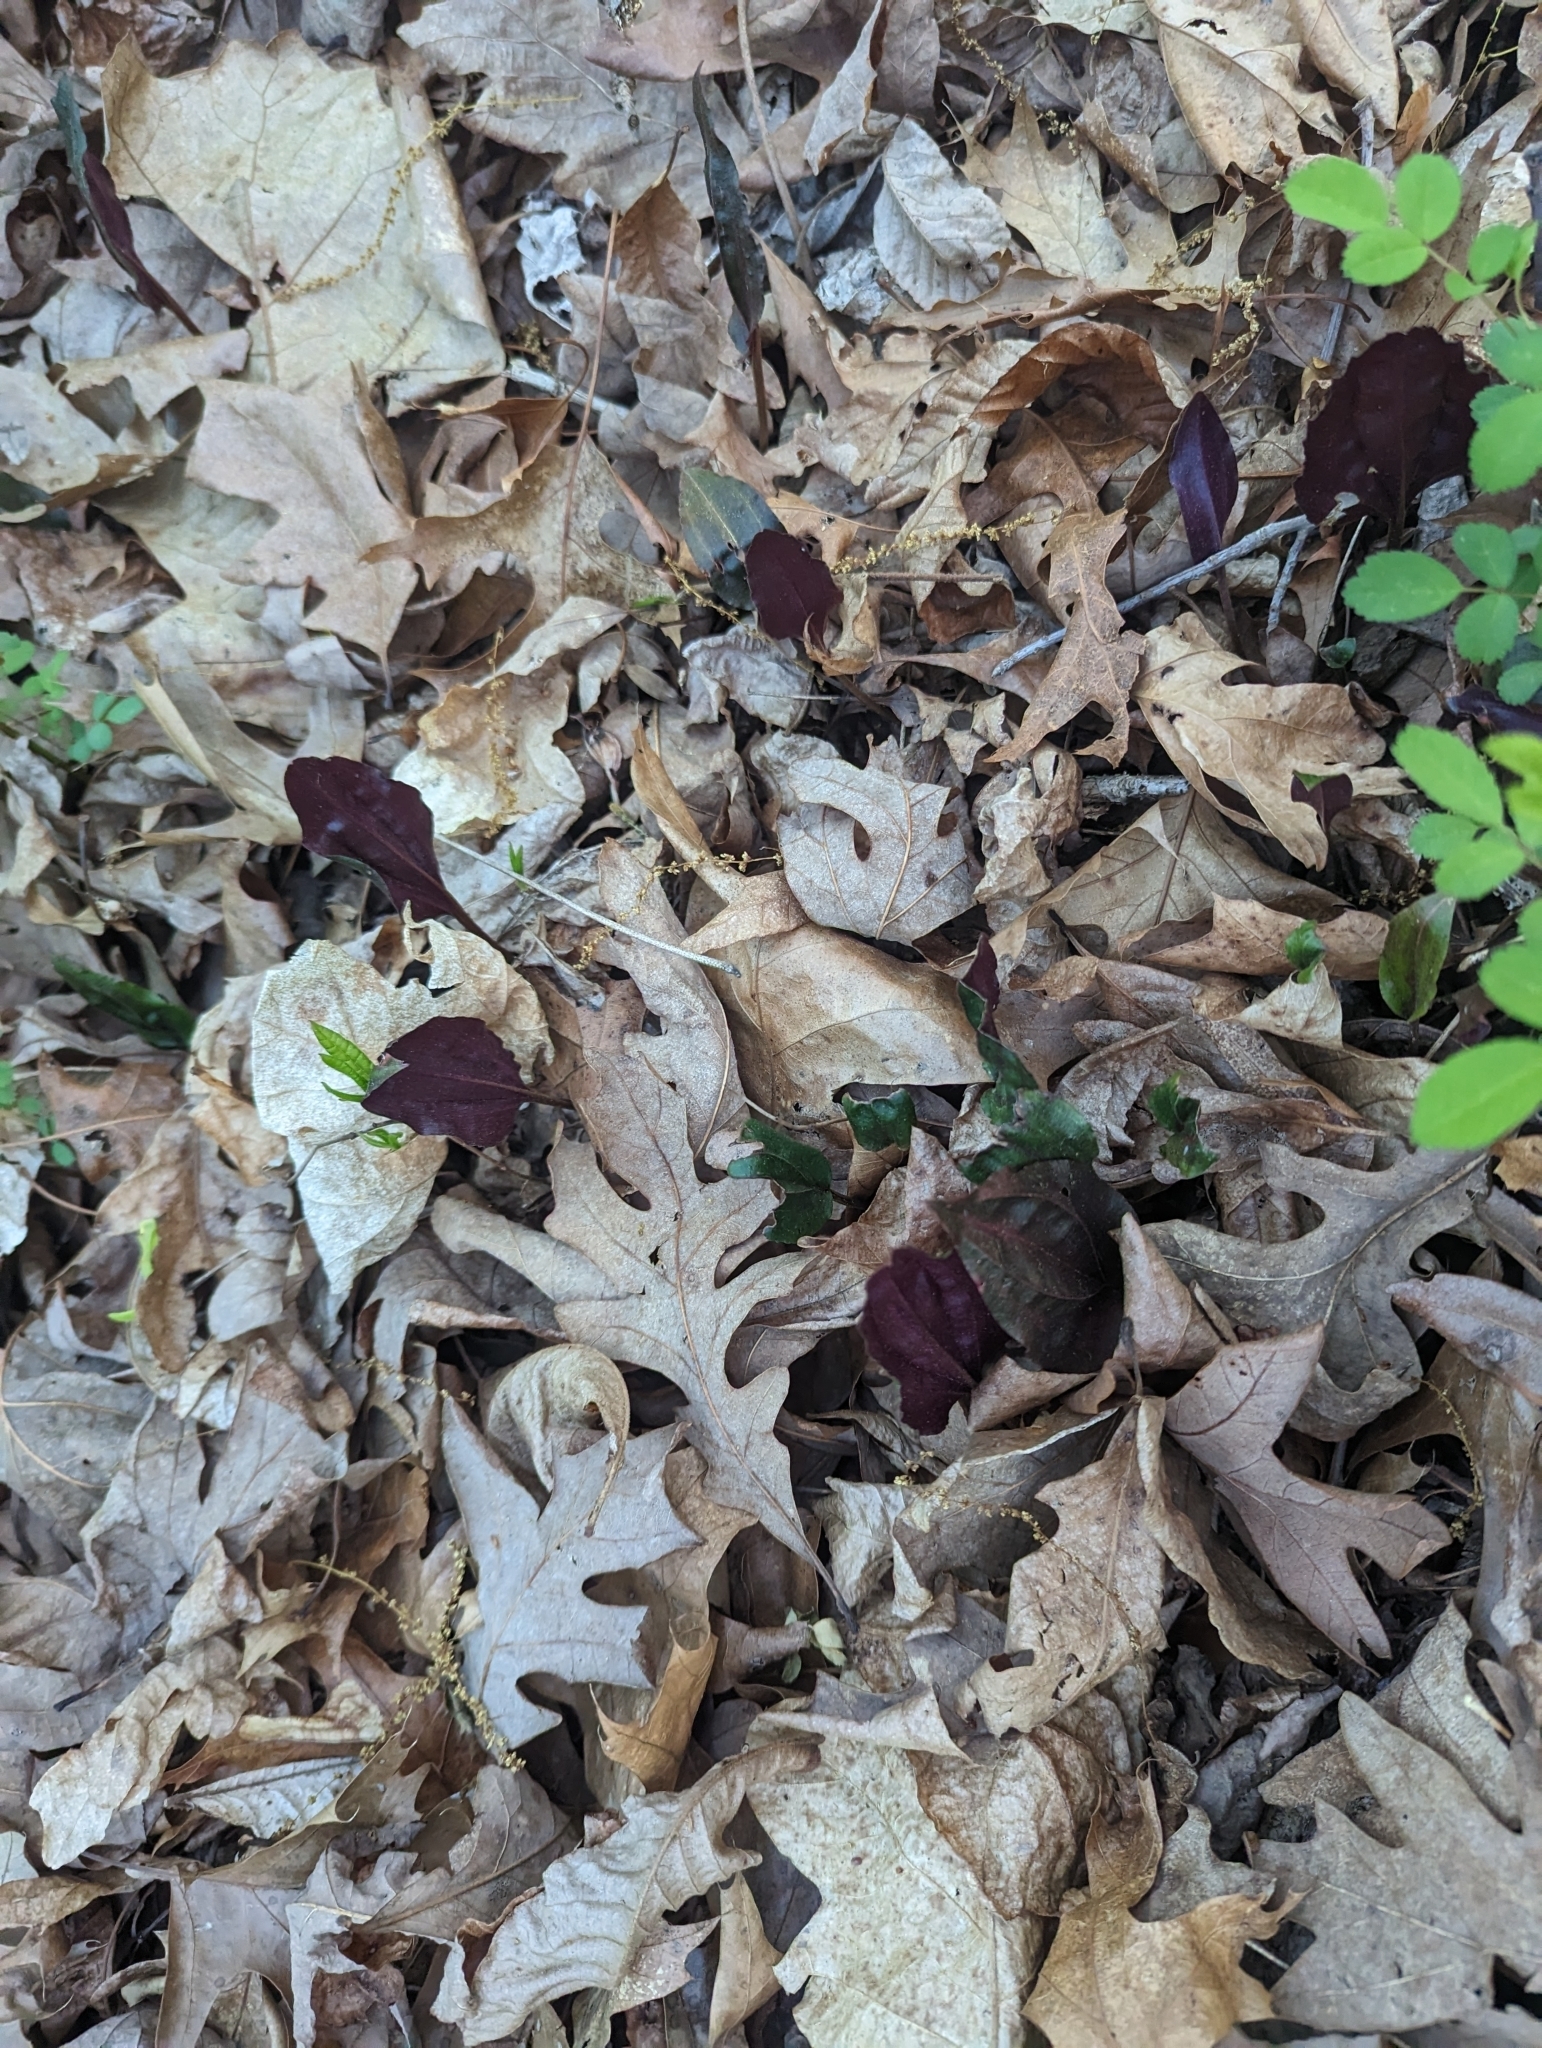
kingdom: Plantae
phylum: Tracheophyta
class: Liliopsida
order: Asparagales
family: Orchidaceae
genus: Tipularia
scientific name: Tipularia discolor
